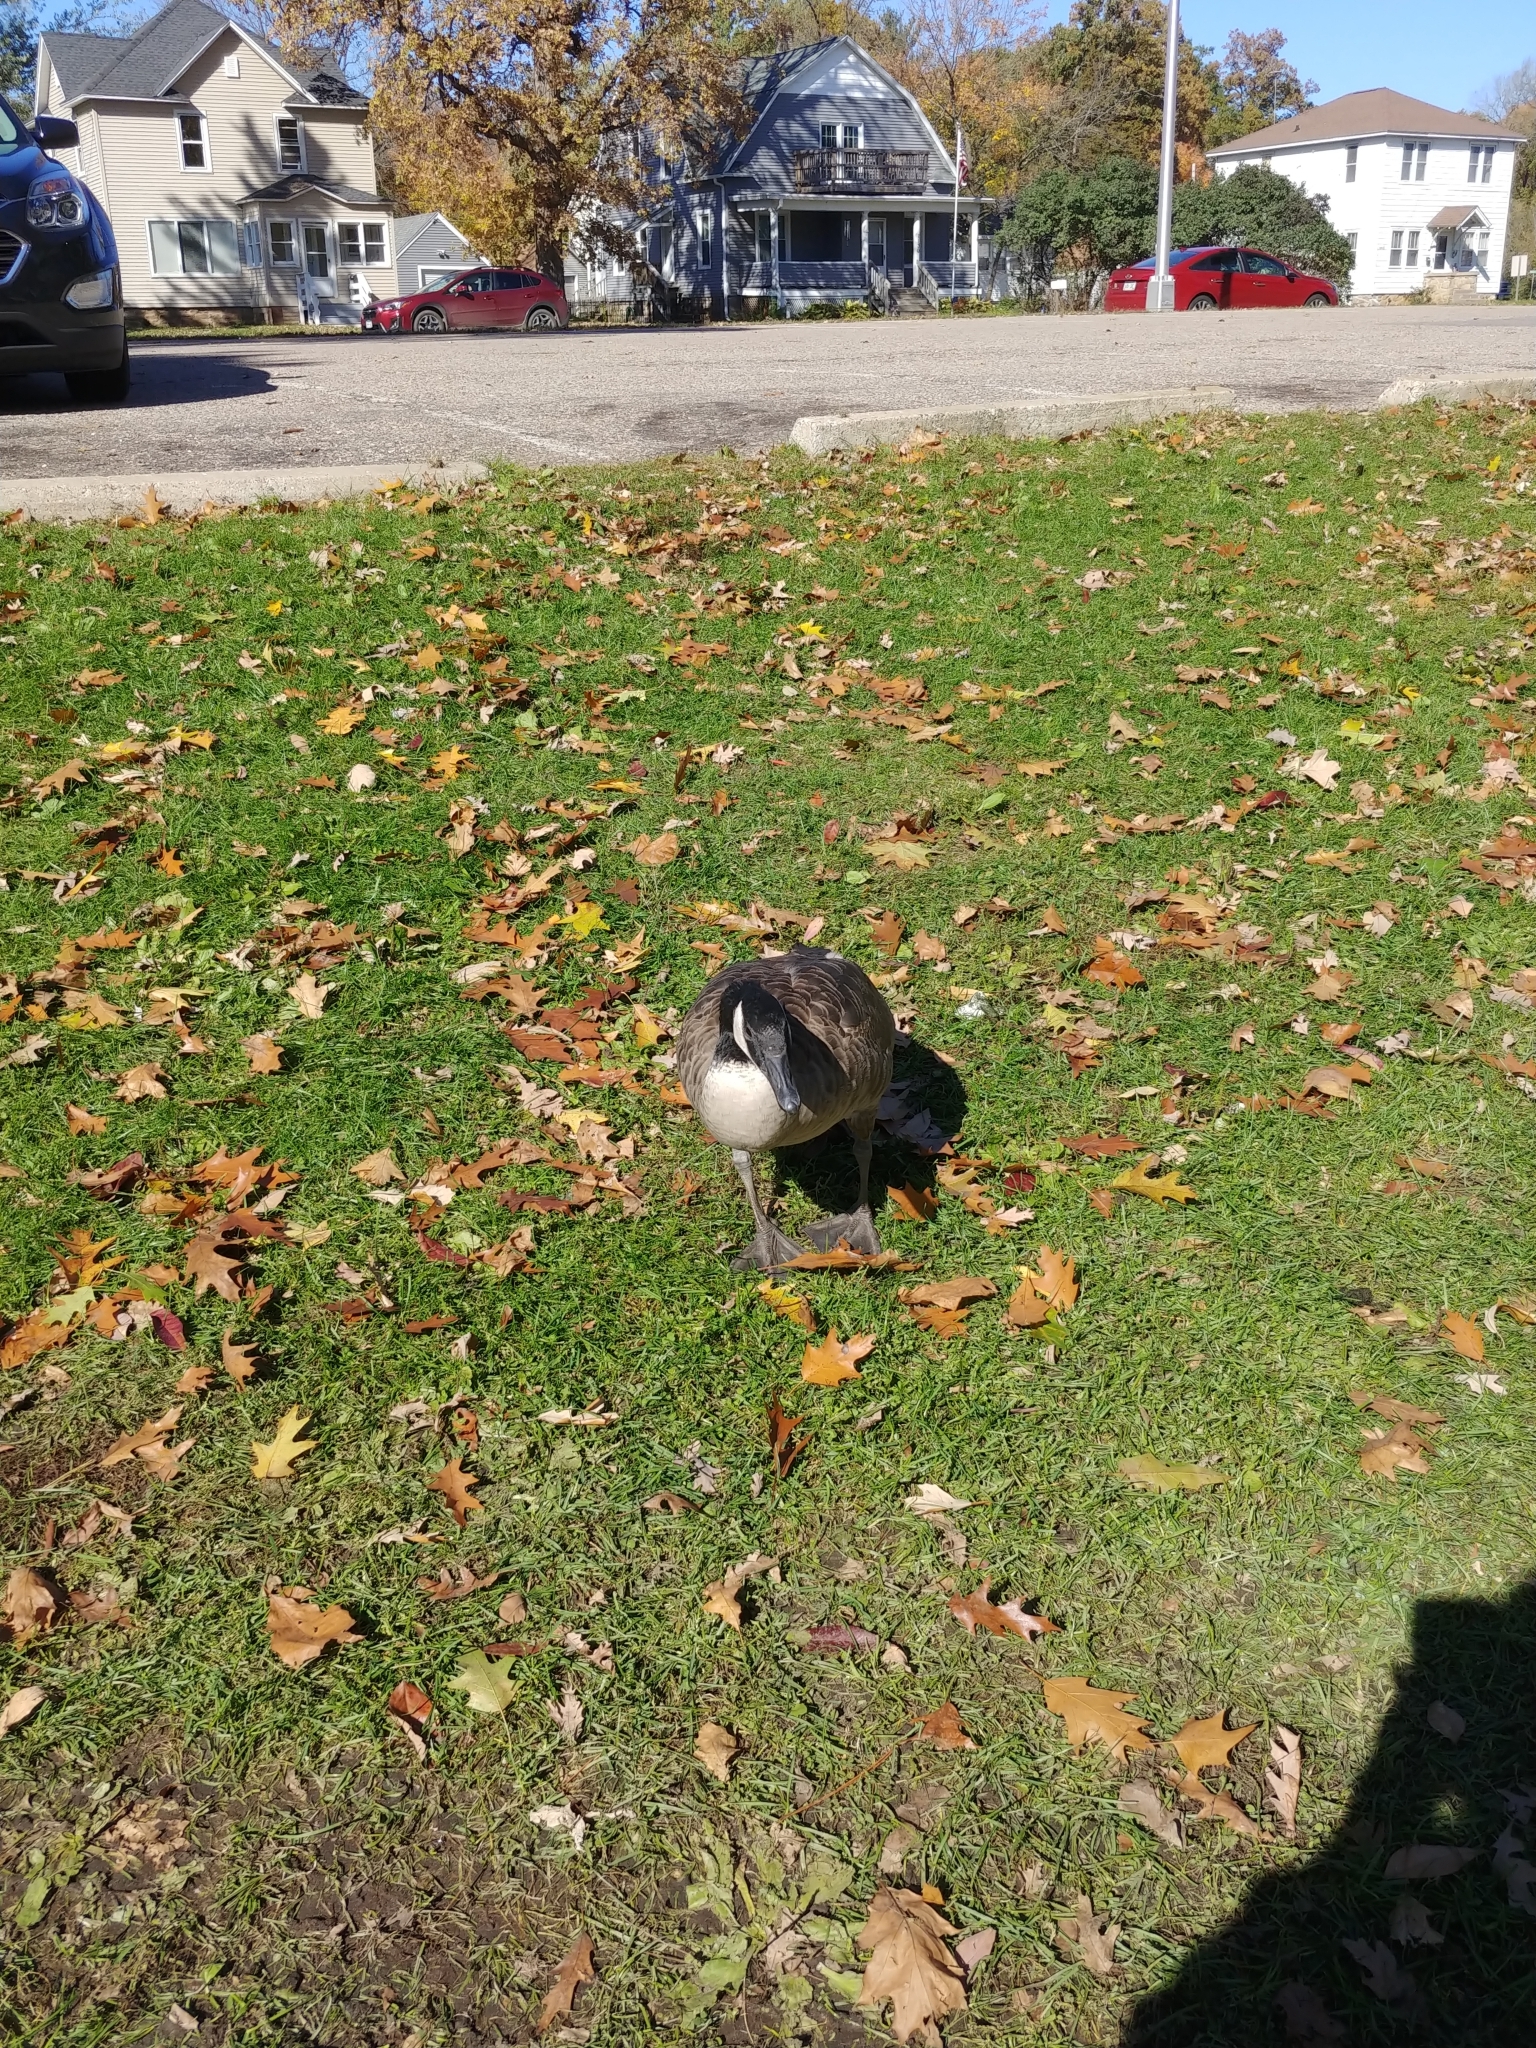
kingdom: Animalia
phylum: Chordata
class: Aves
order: Anseriformes
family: Anatidae
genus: Branta
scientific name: Branta canadensis
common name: Canada goose
